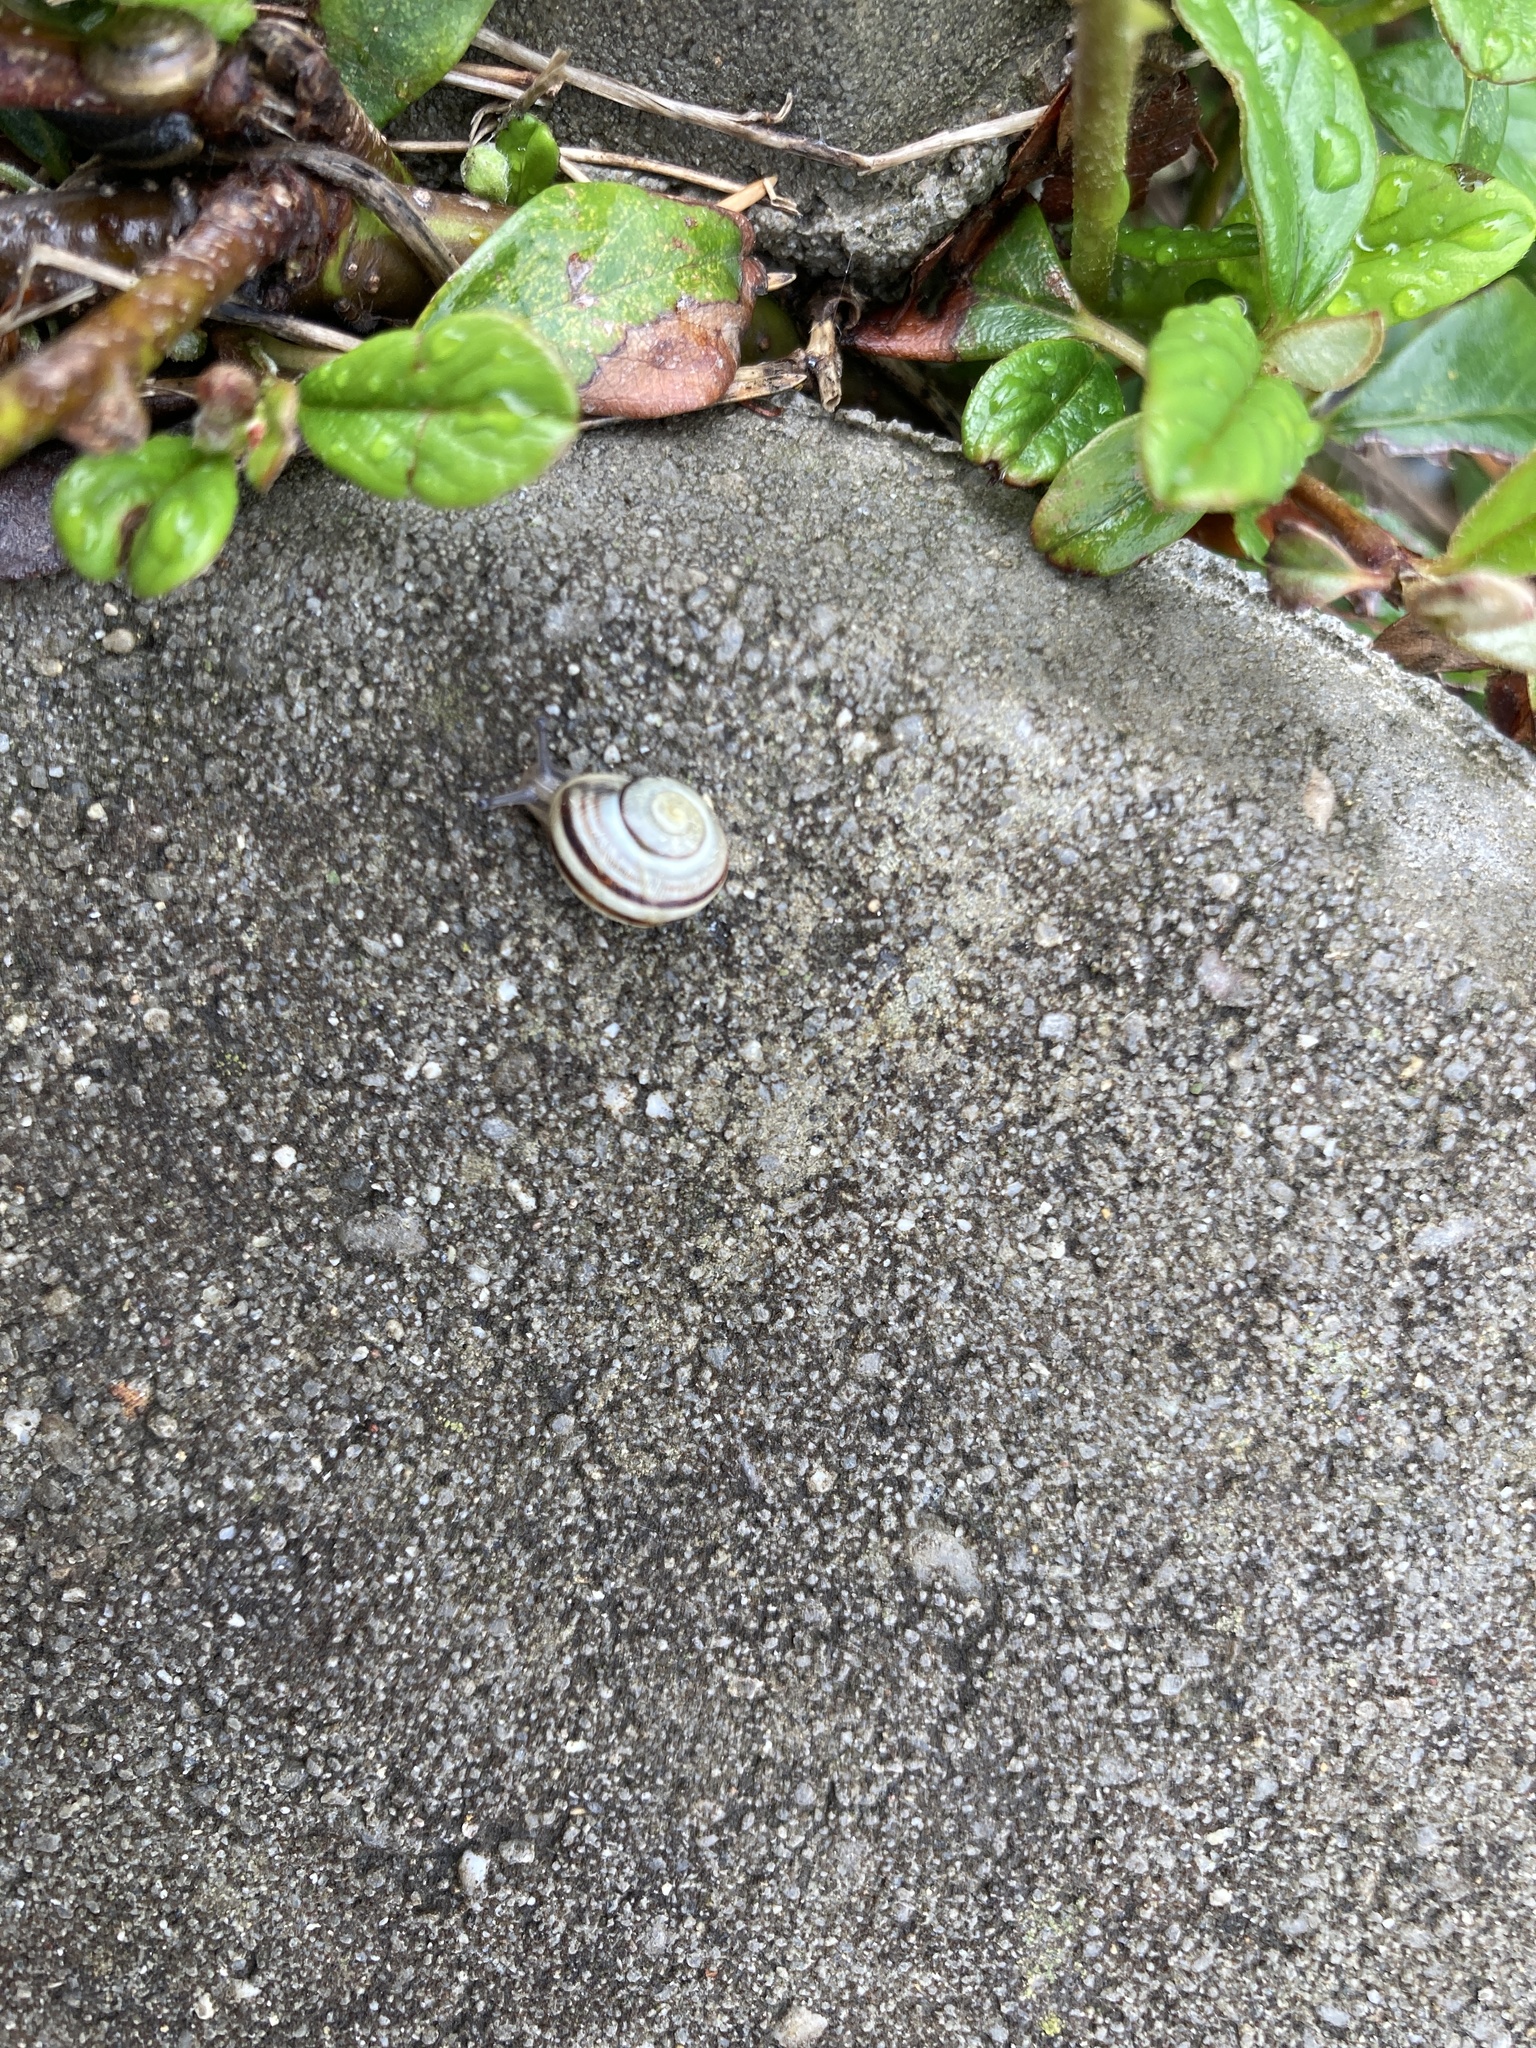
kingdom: Animalia
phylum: Mollusca
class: Gastropoda
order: Stylommatophora
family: Helicidae
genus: Cepaea
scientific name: Cepaea
